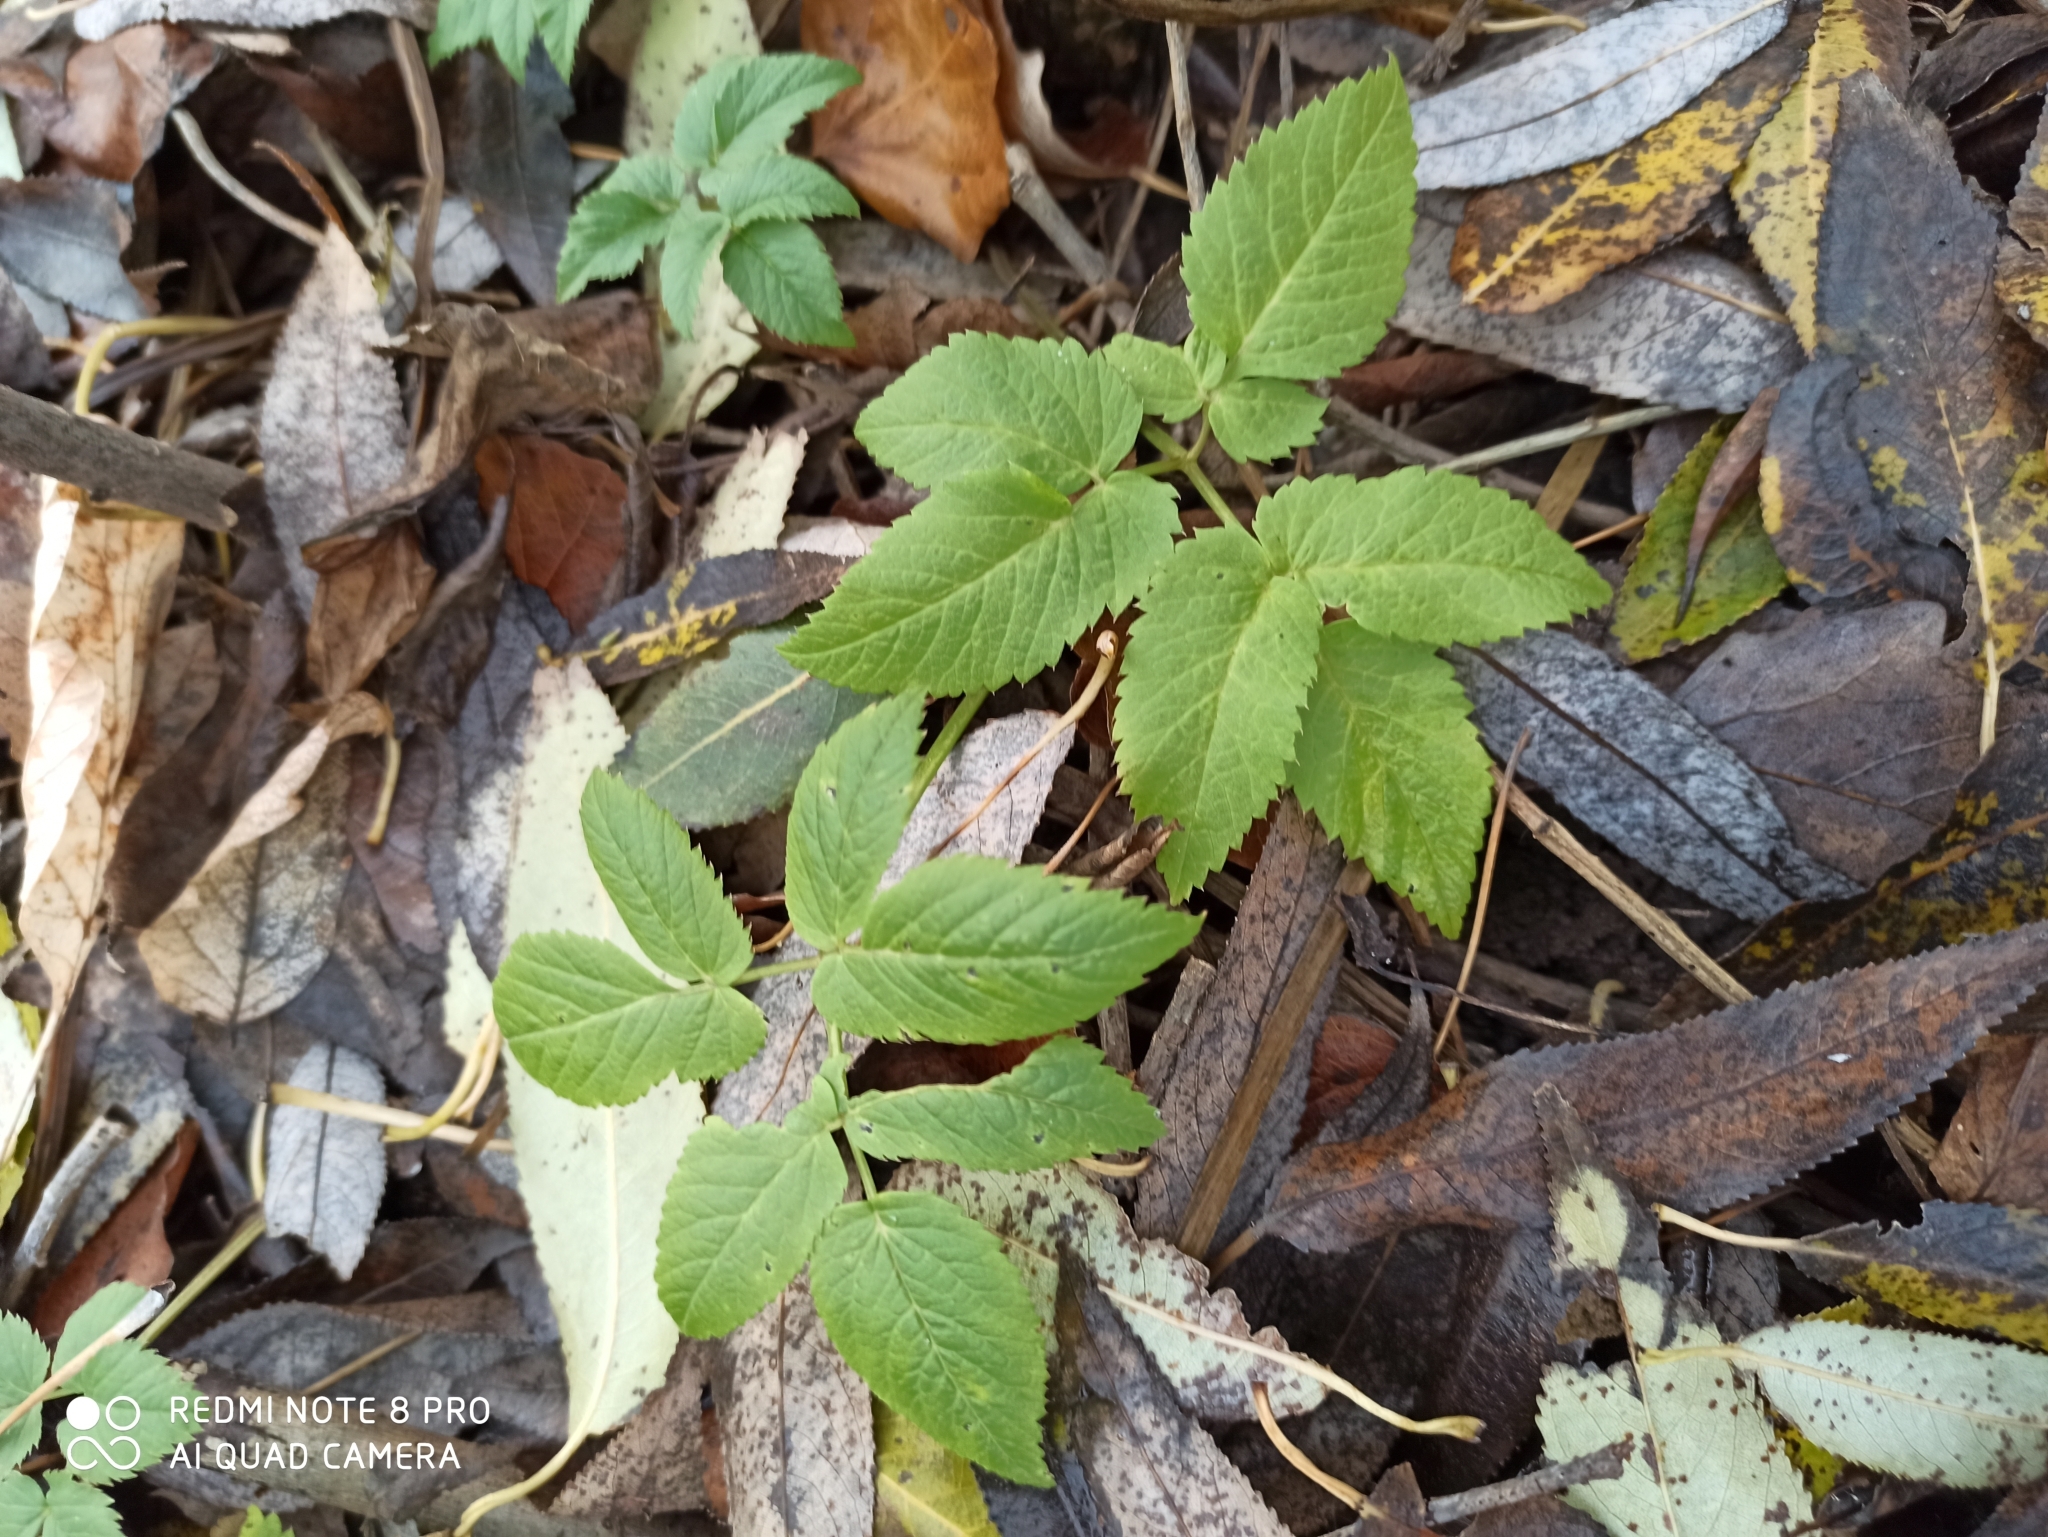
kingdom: Plantae
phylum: Tracheophyta
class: Magnoliopsida
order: Apiales
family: Apiaceae
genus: Aegopodium
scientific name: Aegopodium podagraria
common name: Ground-elder
